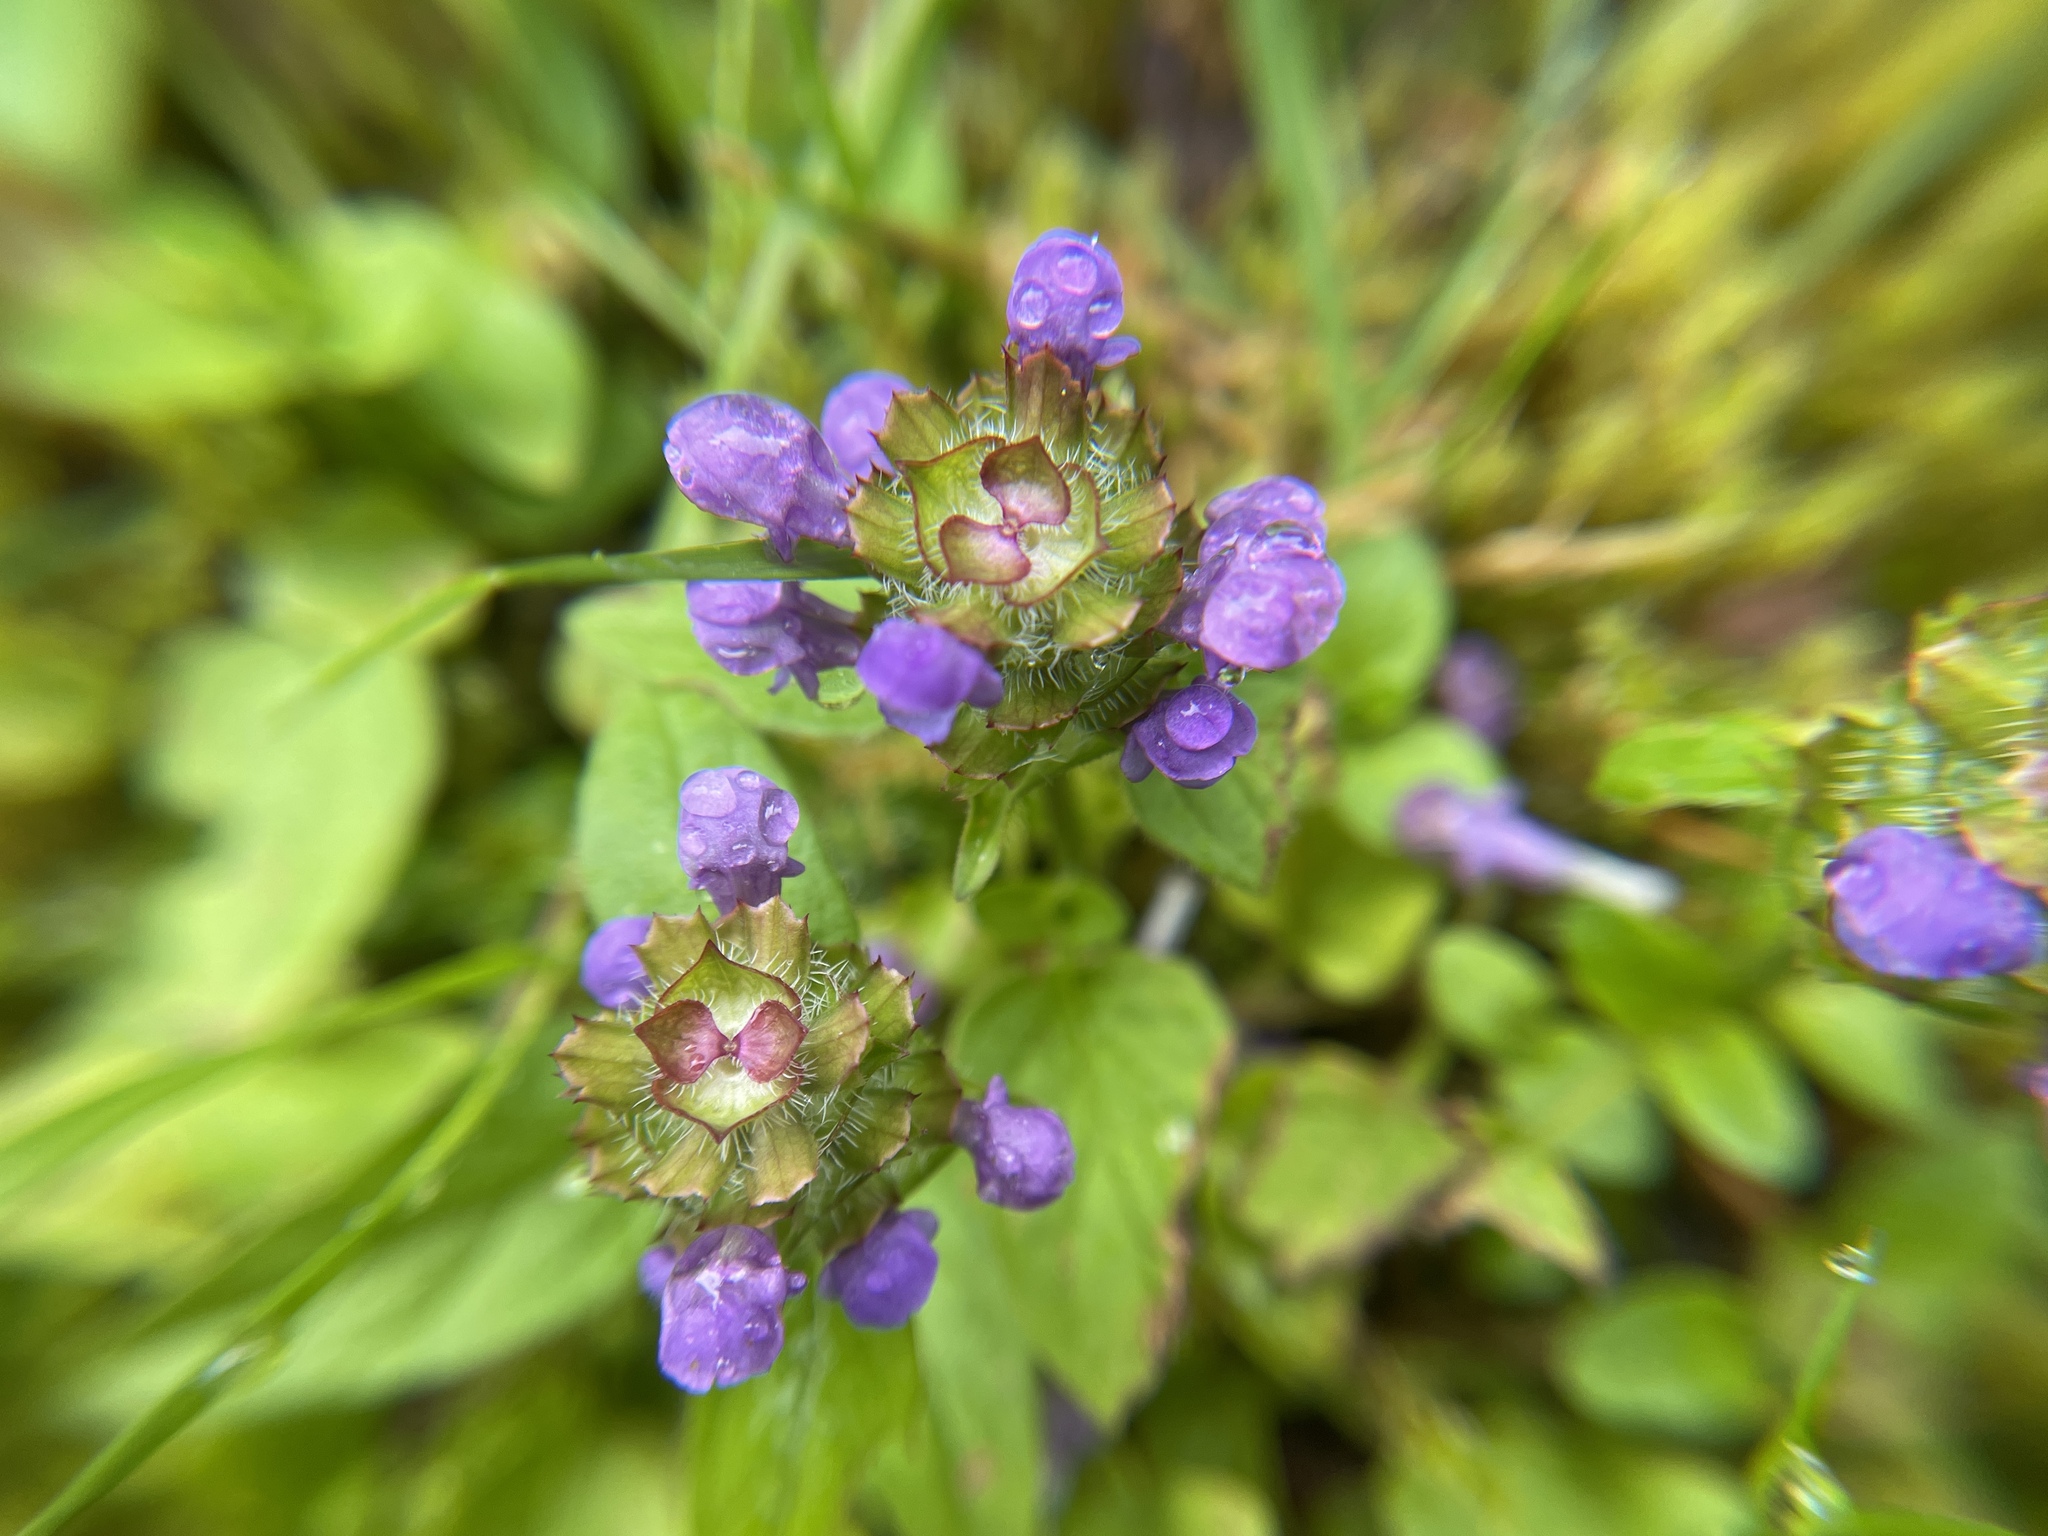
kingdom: Plantae
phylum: Tracheophyta
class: Magnoliopsida
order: Lamiales
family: Lamiaceae
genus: Prunella
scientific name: Prunella vulgaris
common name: Heal-all
